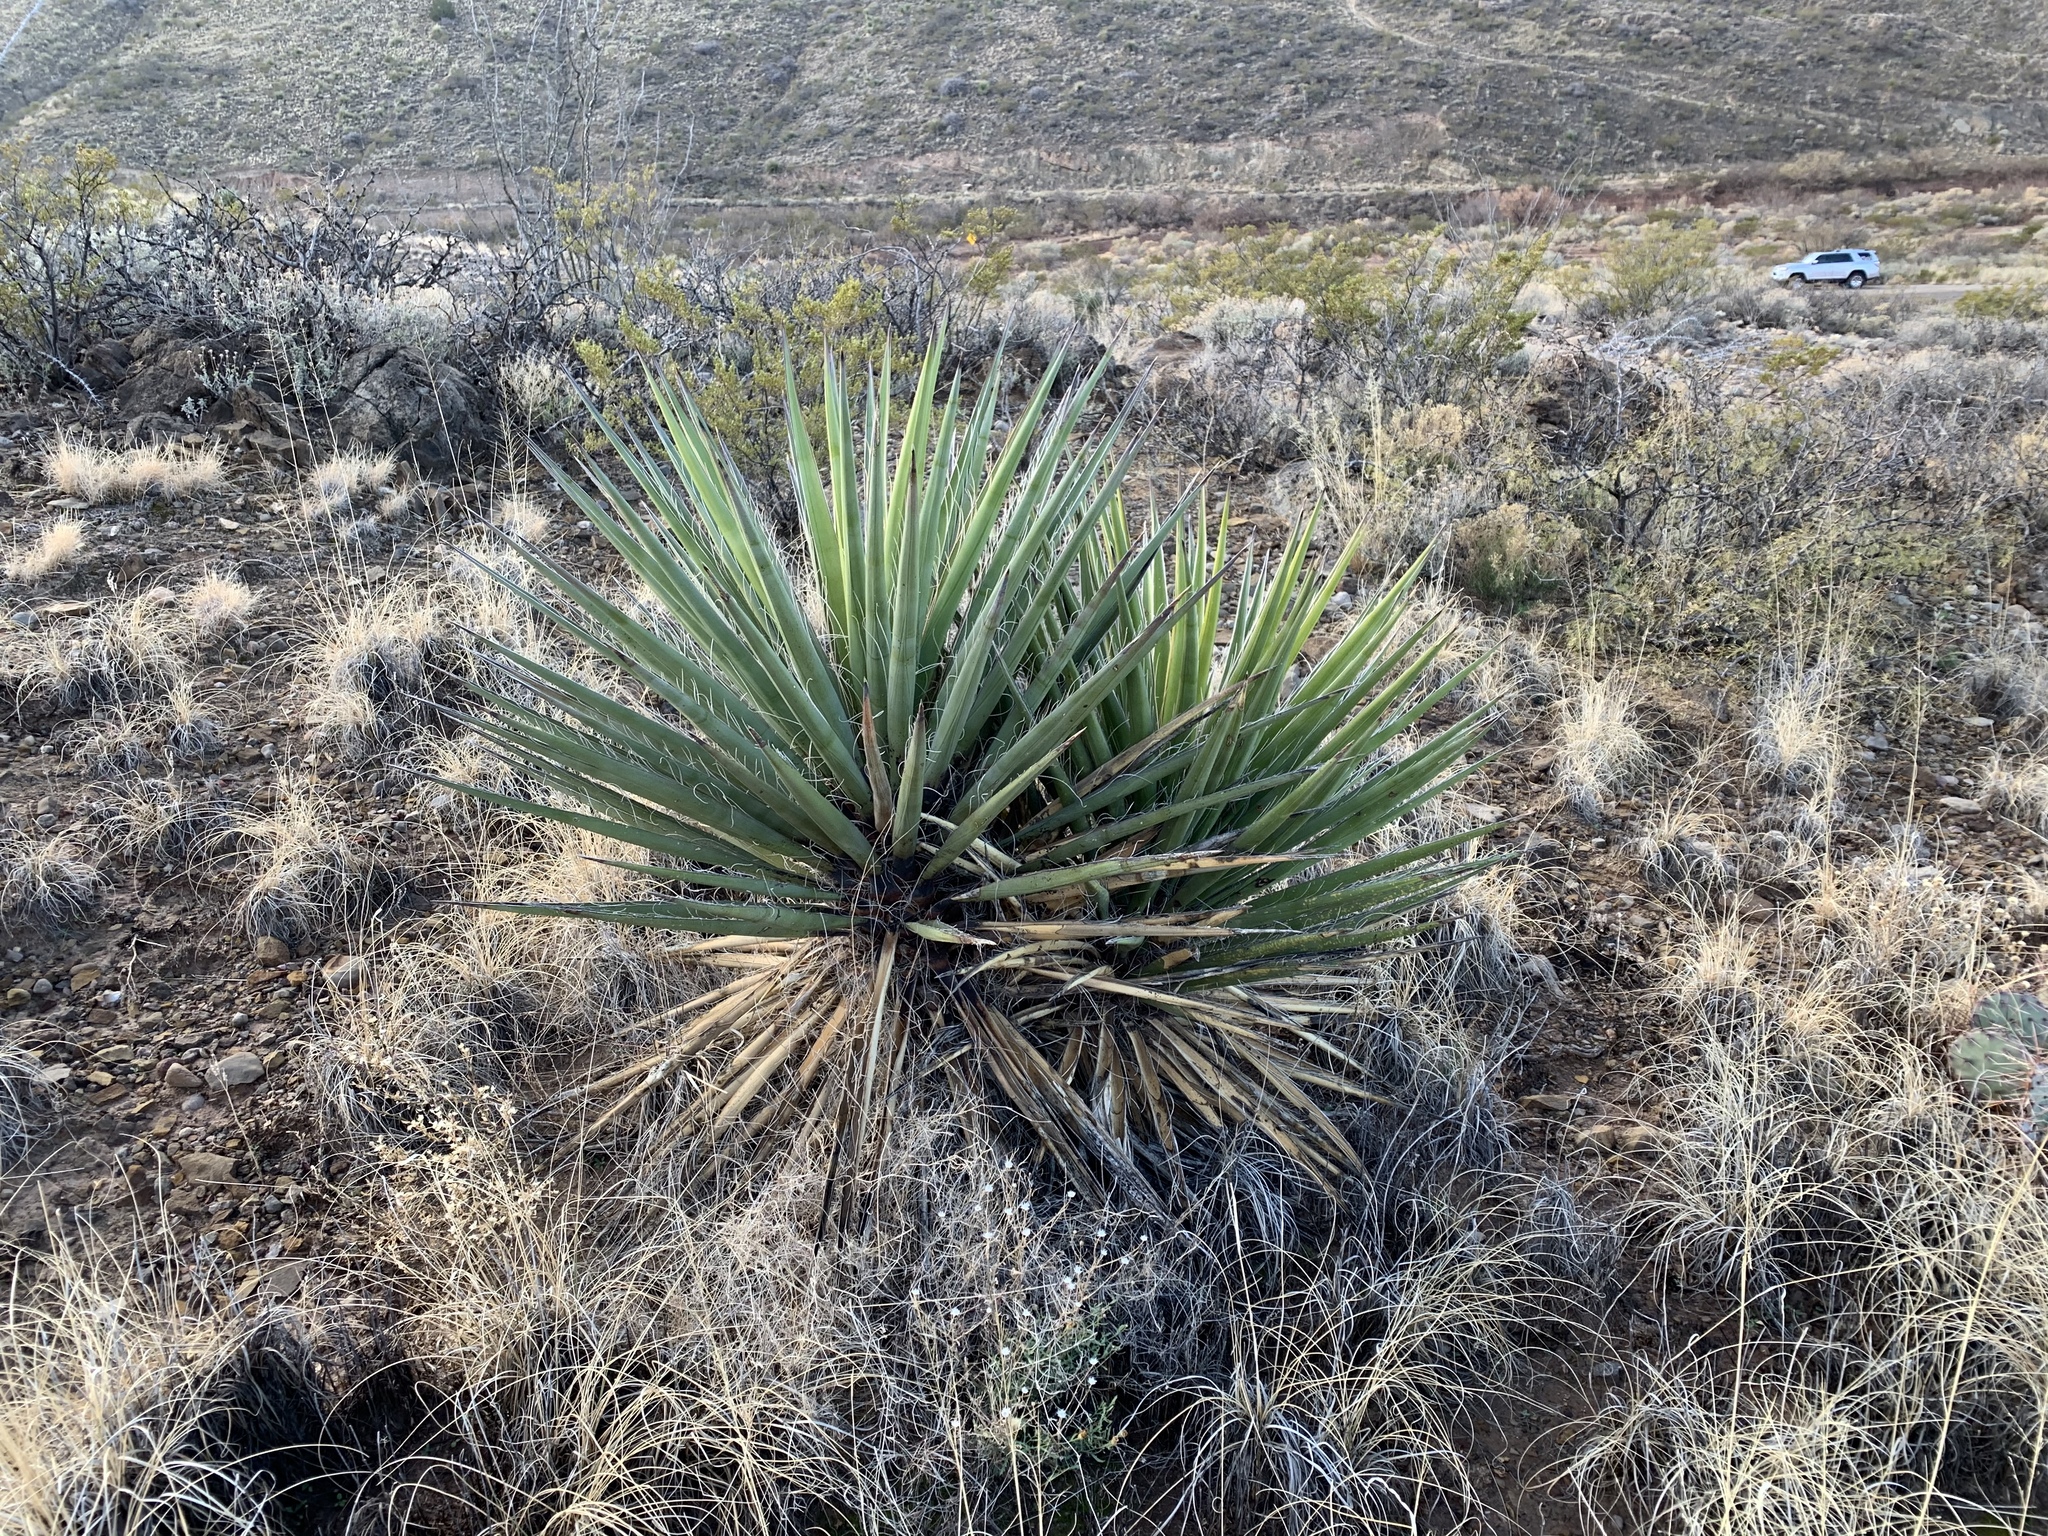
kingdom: Plantae
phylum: Tracheophyta
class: Liliopsida
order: Asparagales
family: Asparagaceae
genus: Yucca
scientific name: Yucca treculiana
